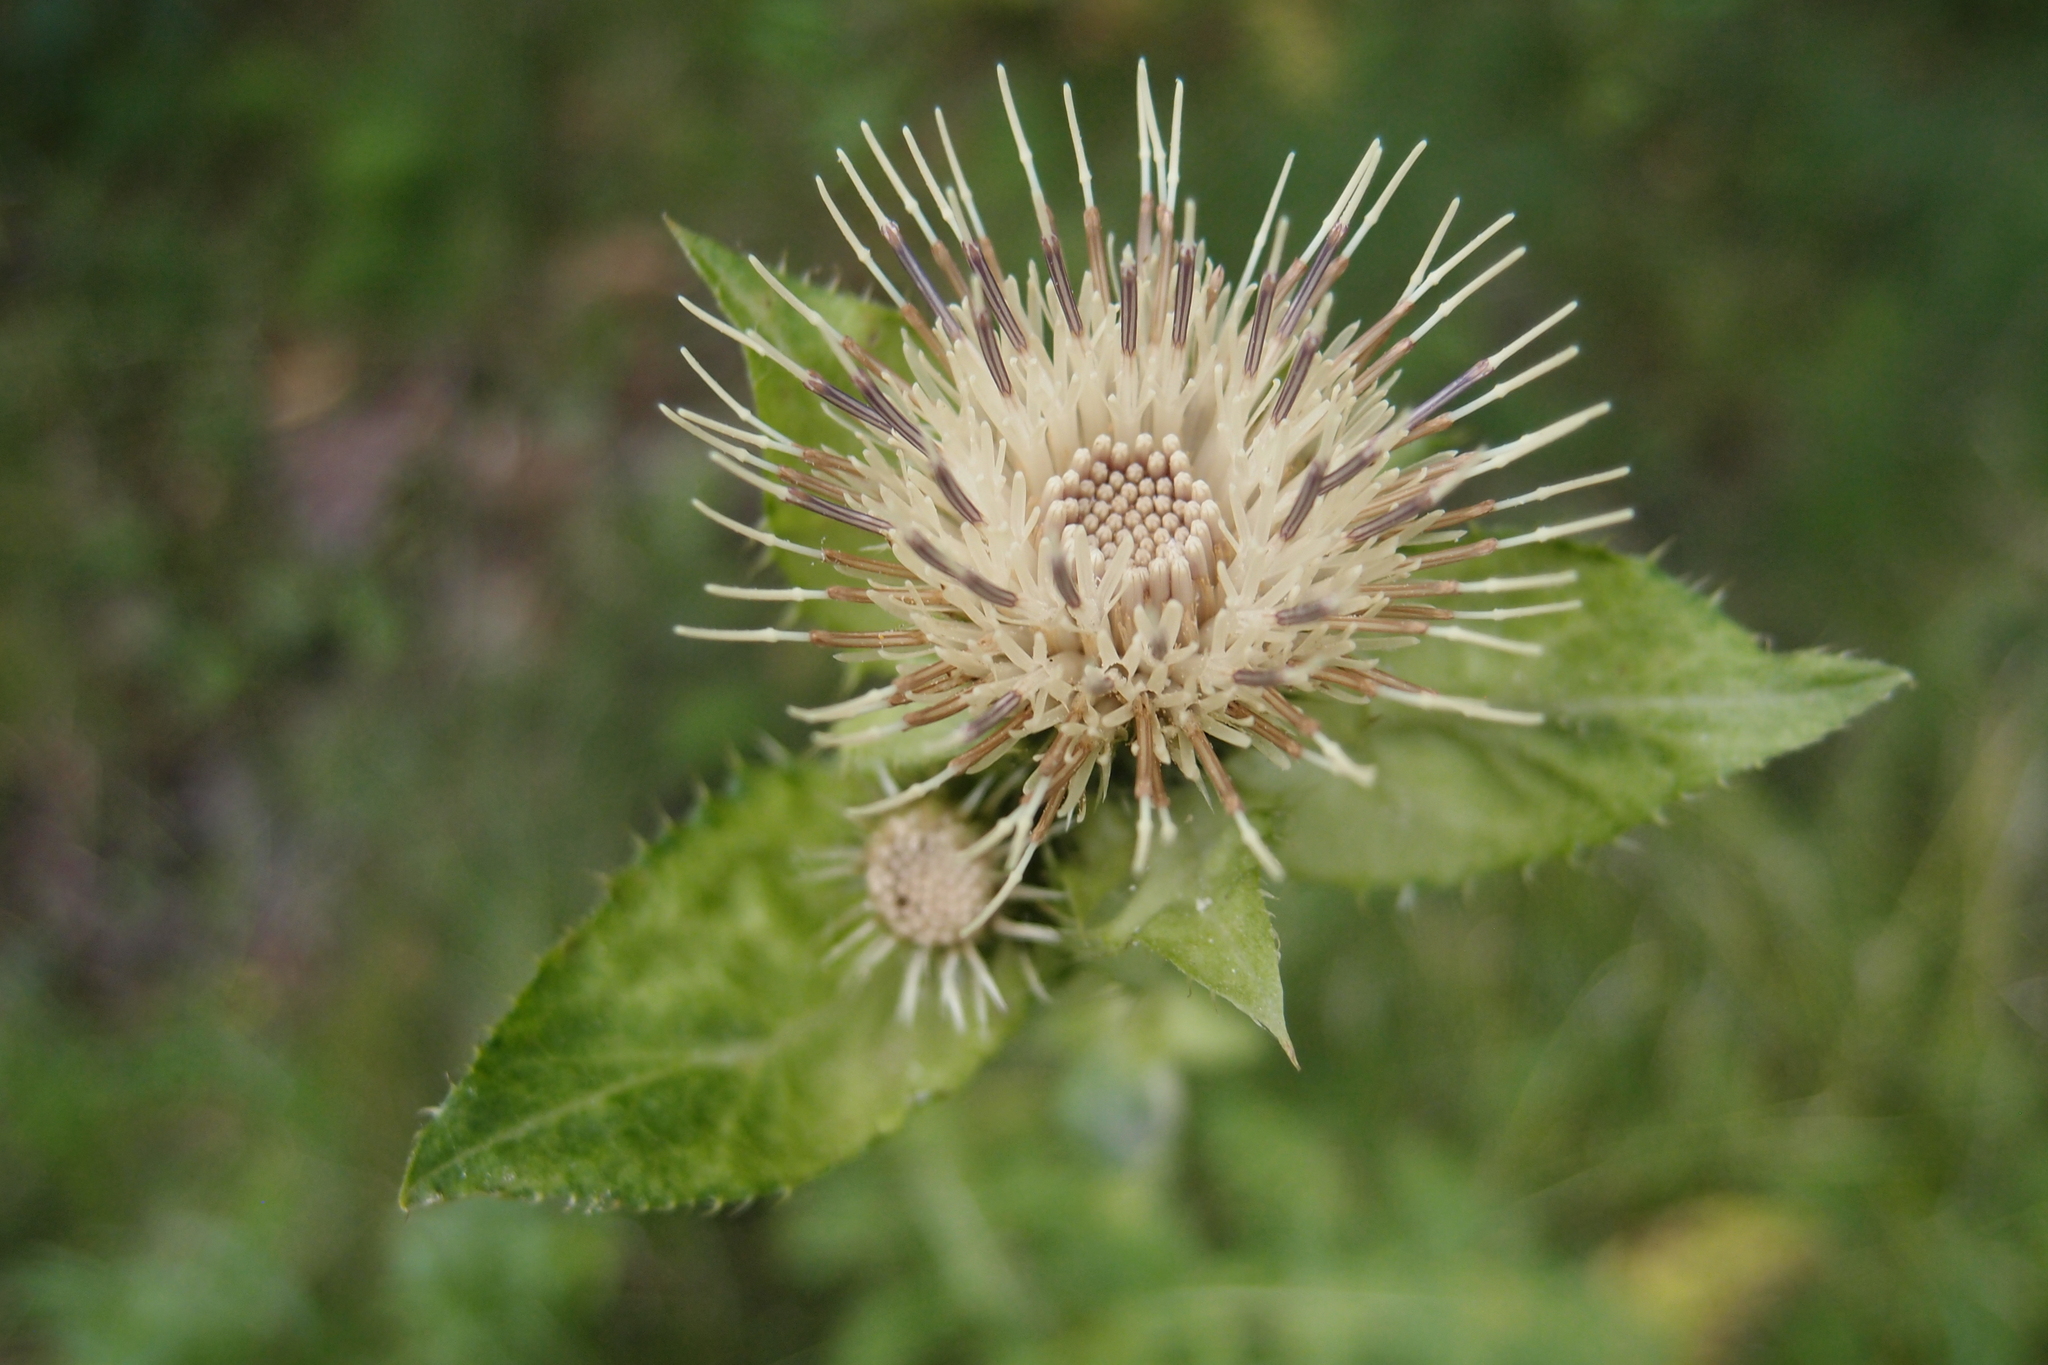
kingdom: Plantae
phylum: Tracheophyta
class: Magnoliopsida
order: Asterales
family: Asteraceae
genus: Cirsium
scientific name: Cirsium oleraceum
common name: Cabbage thistle
